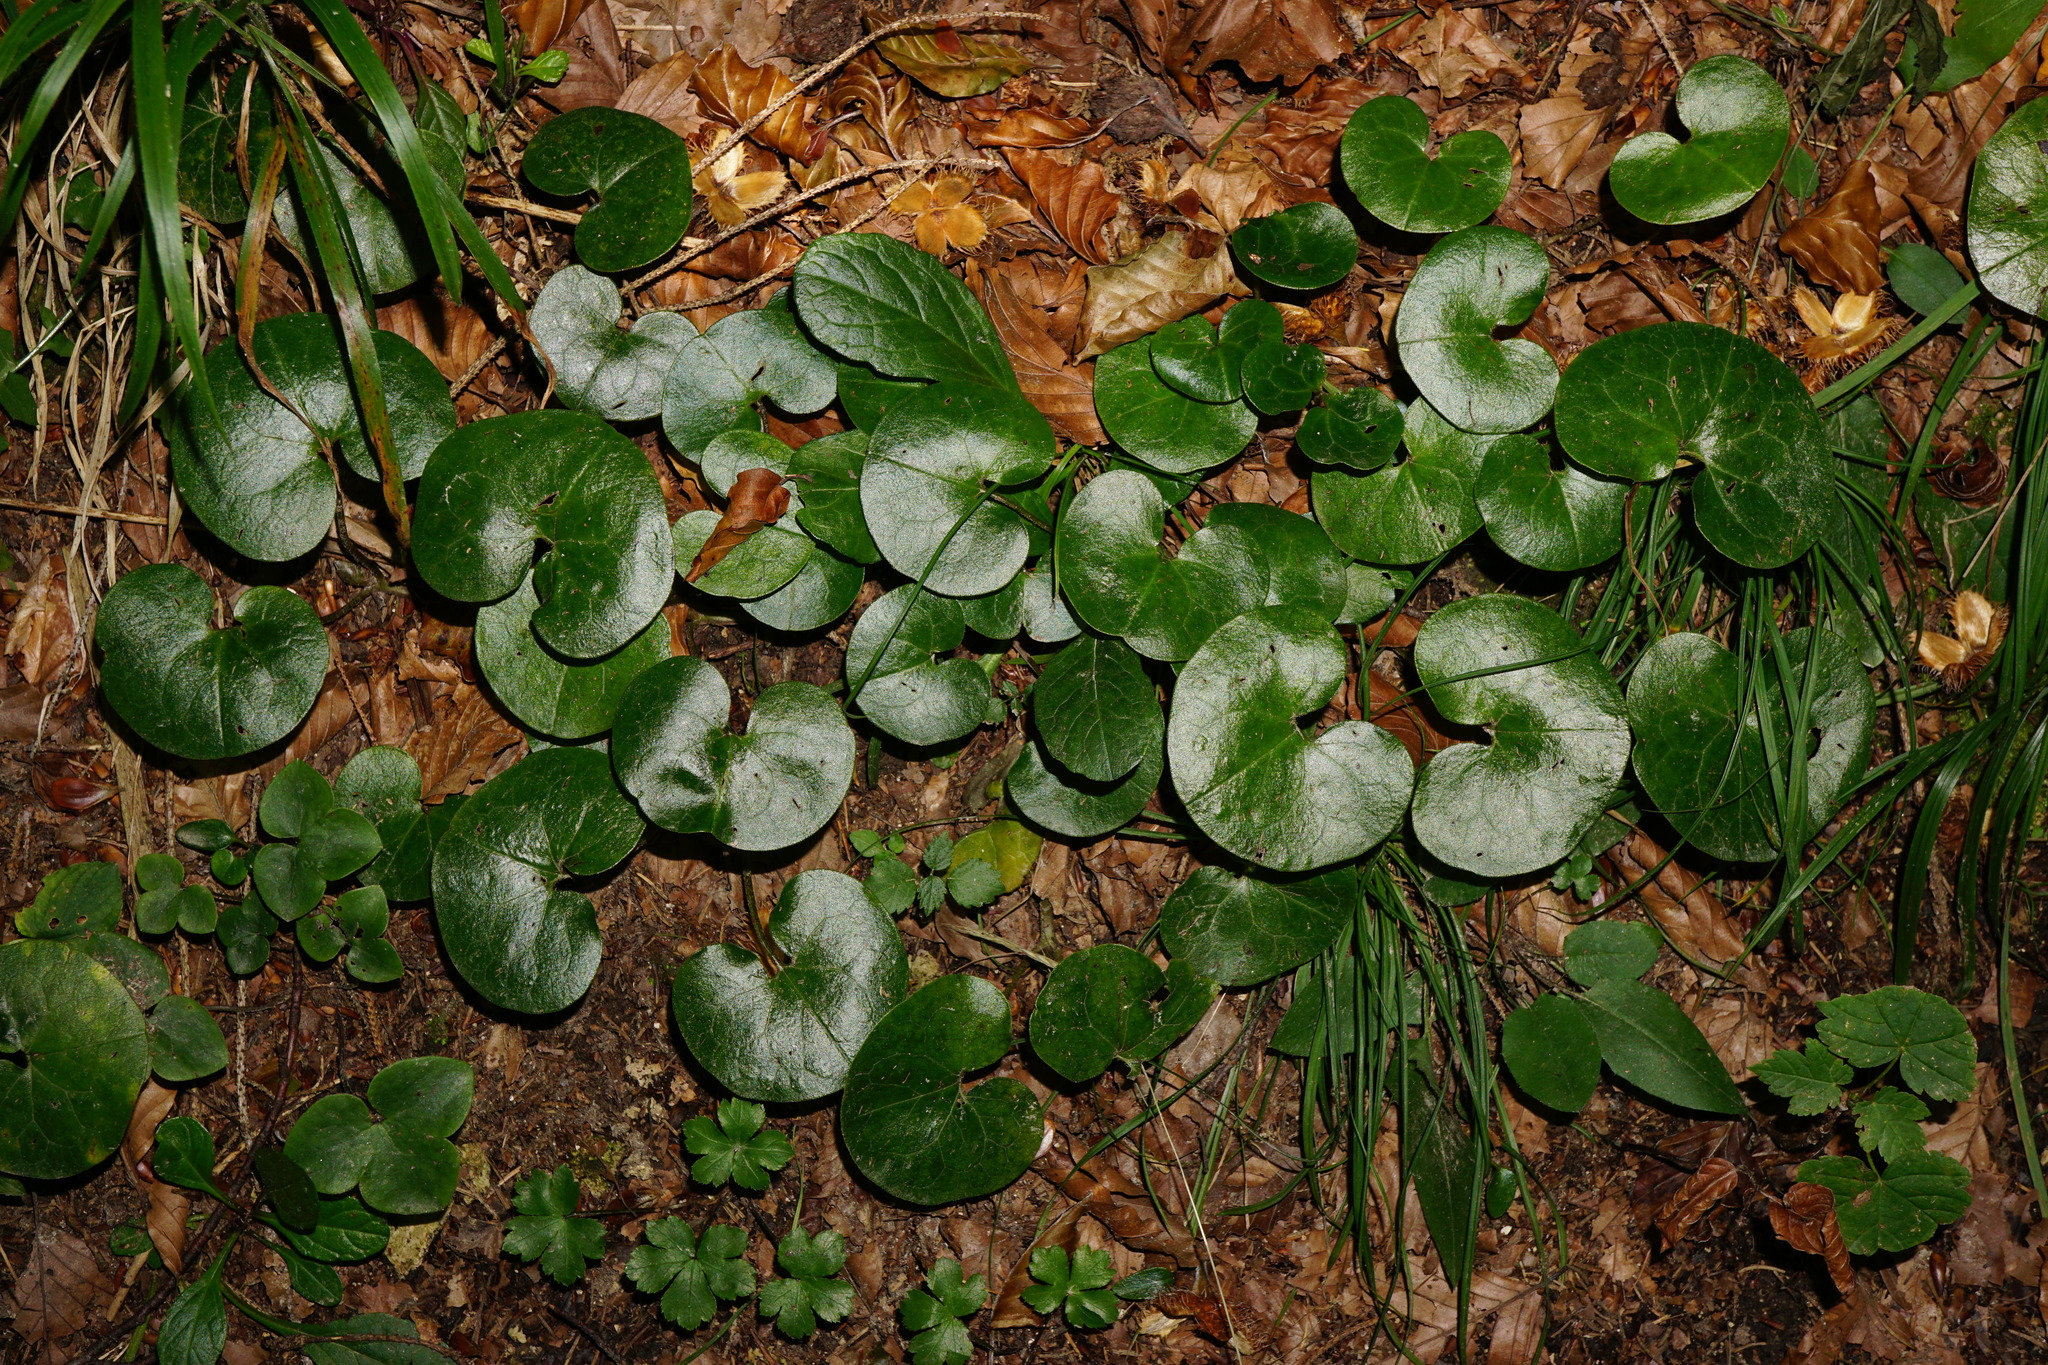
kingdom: Plantae
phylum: Tracheophyta
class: Magnoliopsida
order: Piperales
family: Aristolochiaceae
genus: Asarum
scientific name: Asarum europaeum
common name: Asarabacca
